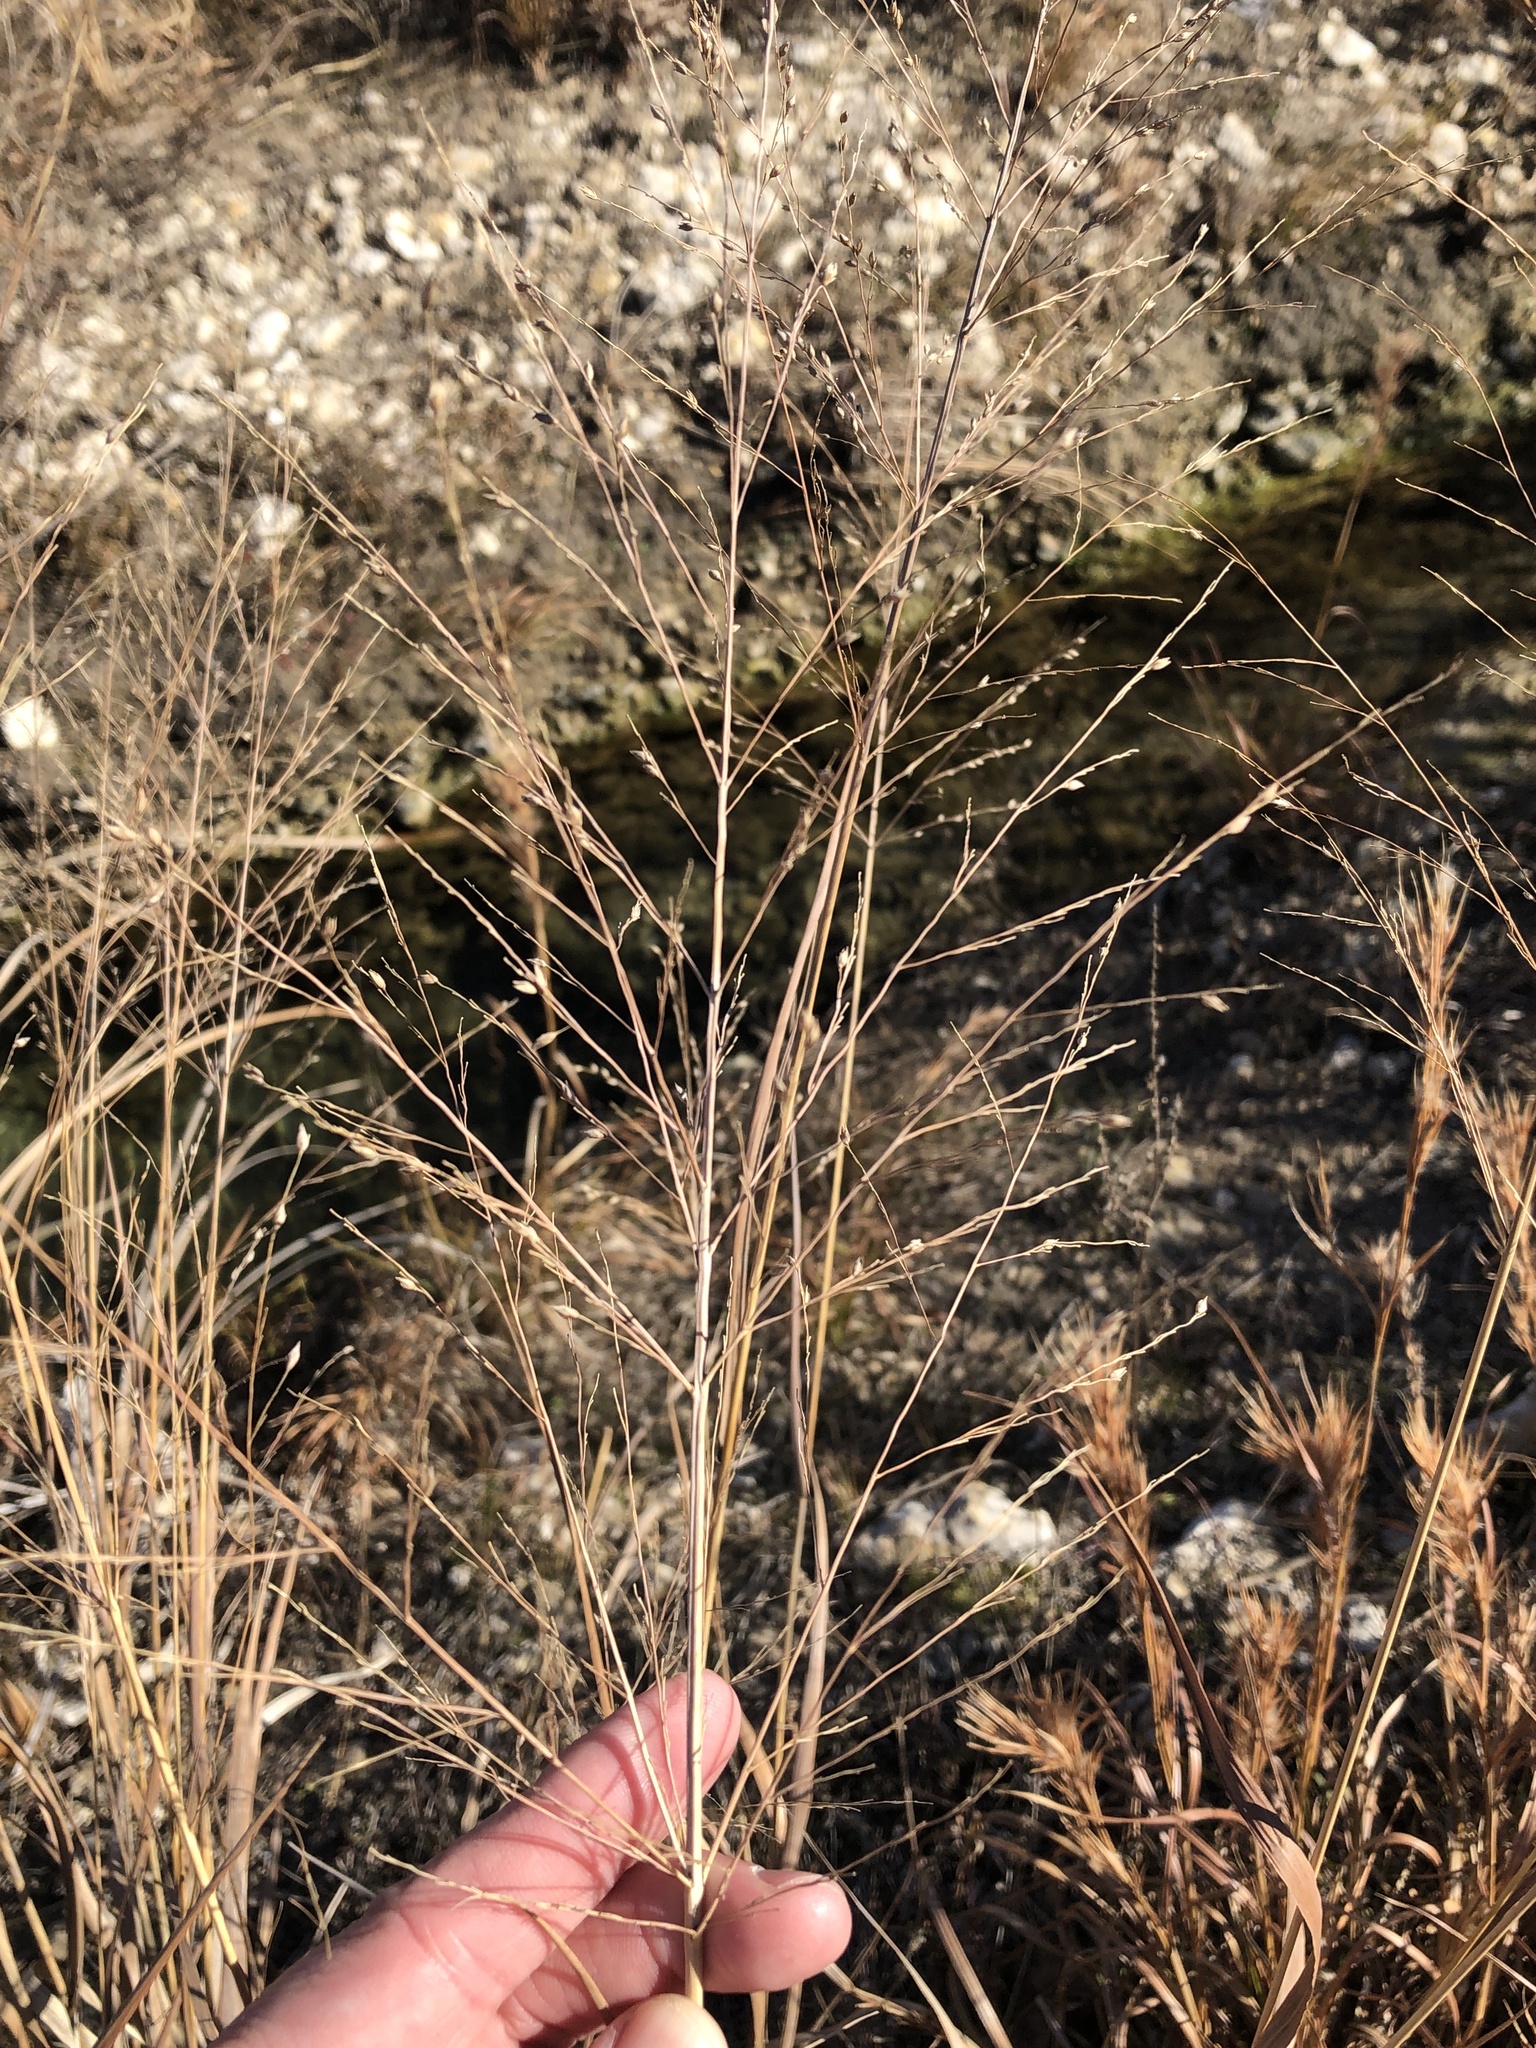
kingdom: Plantae
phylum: Tracheophyta
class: Liliopsida
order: Poales
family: Poaceae
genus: Panicum
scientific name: Panicum virgatum
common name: Switchgrass
